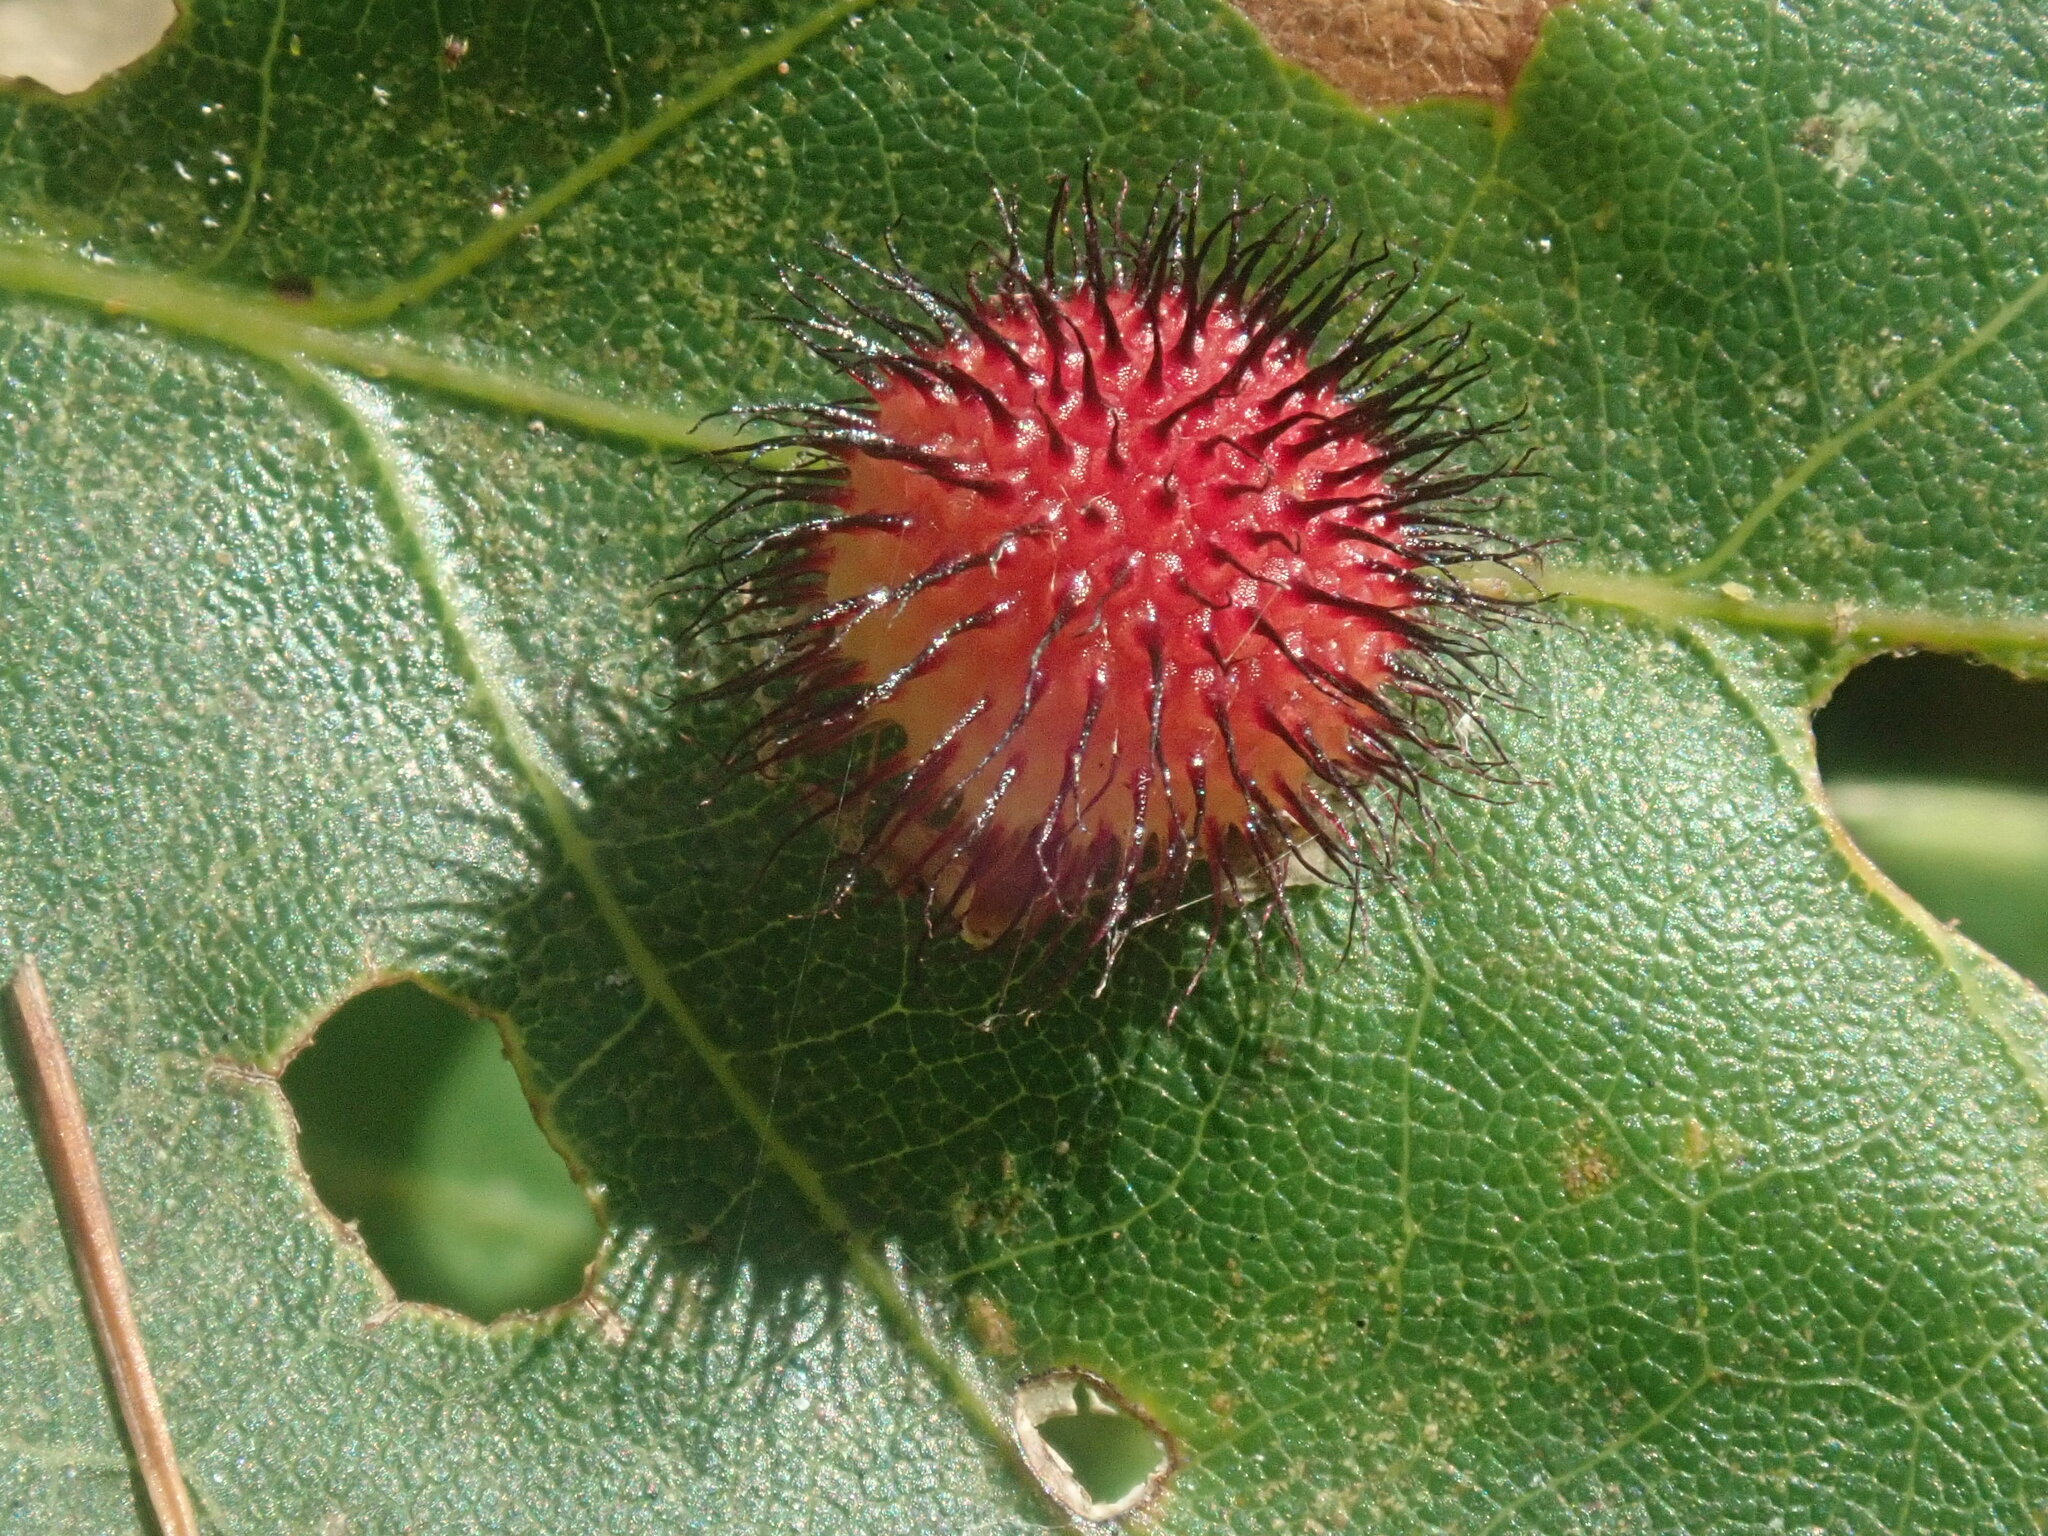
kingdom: Animalia
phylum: Arthropoda
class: Insecta
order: Hymenoptera
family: Cynipidae
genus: Acraspis
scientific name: Acraspis erinacei
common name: Hedgehog gall wasp
